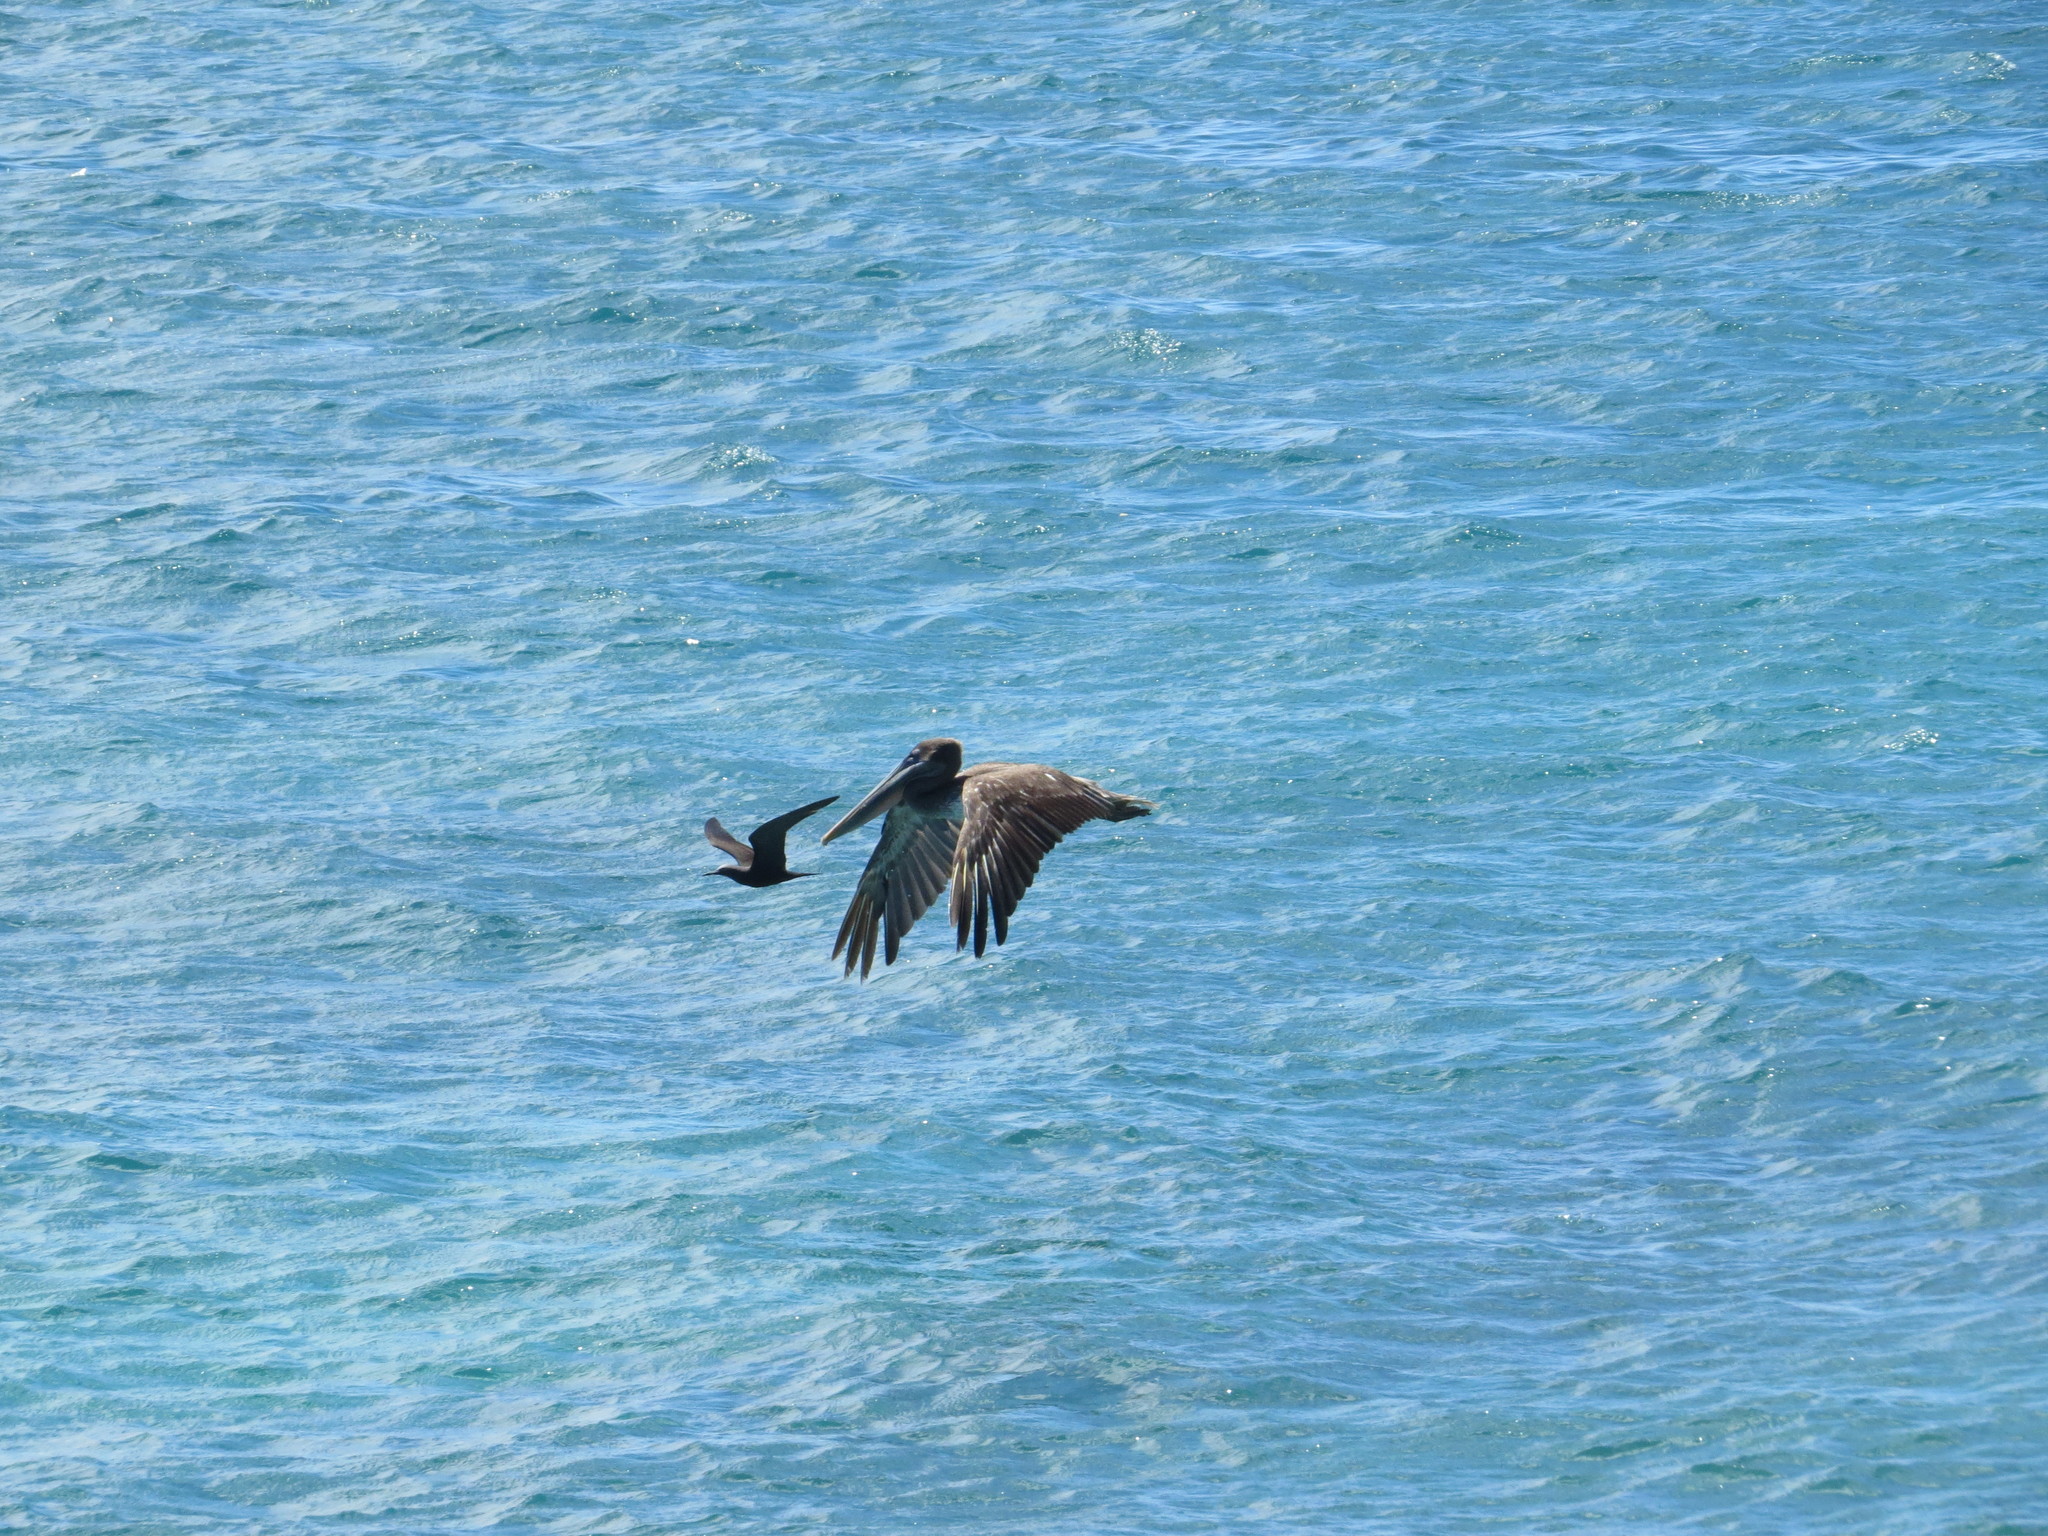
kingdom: Animalia
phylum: Chordata
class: Aves
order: Charadriiformes
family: Laridae
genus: Anous
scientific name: Anous stolidus
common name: Brown noddy
